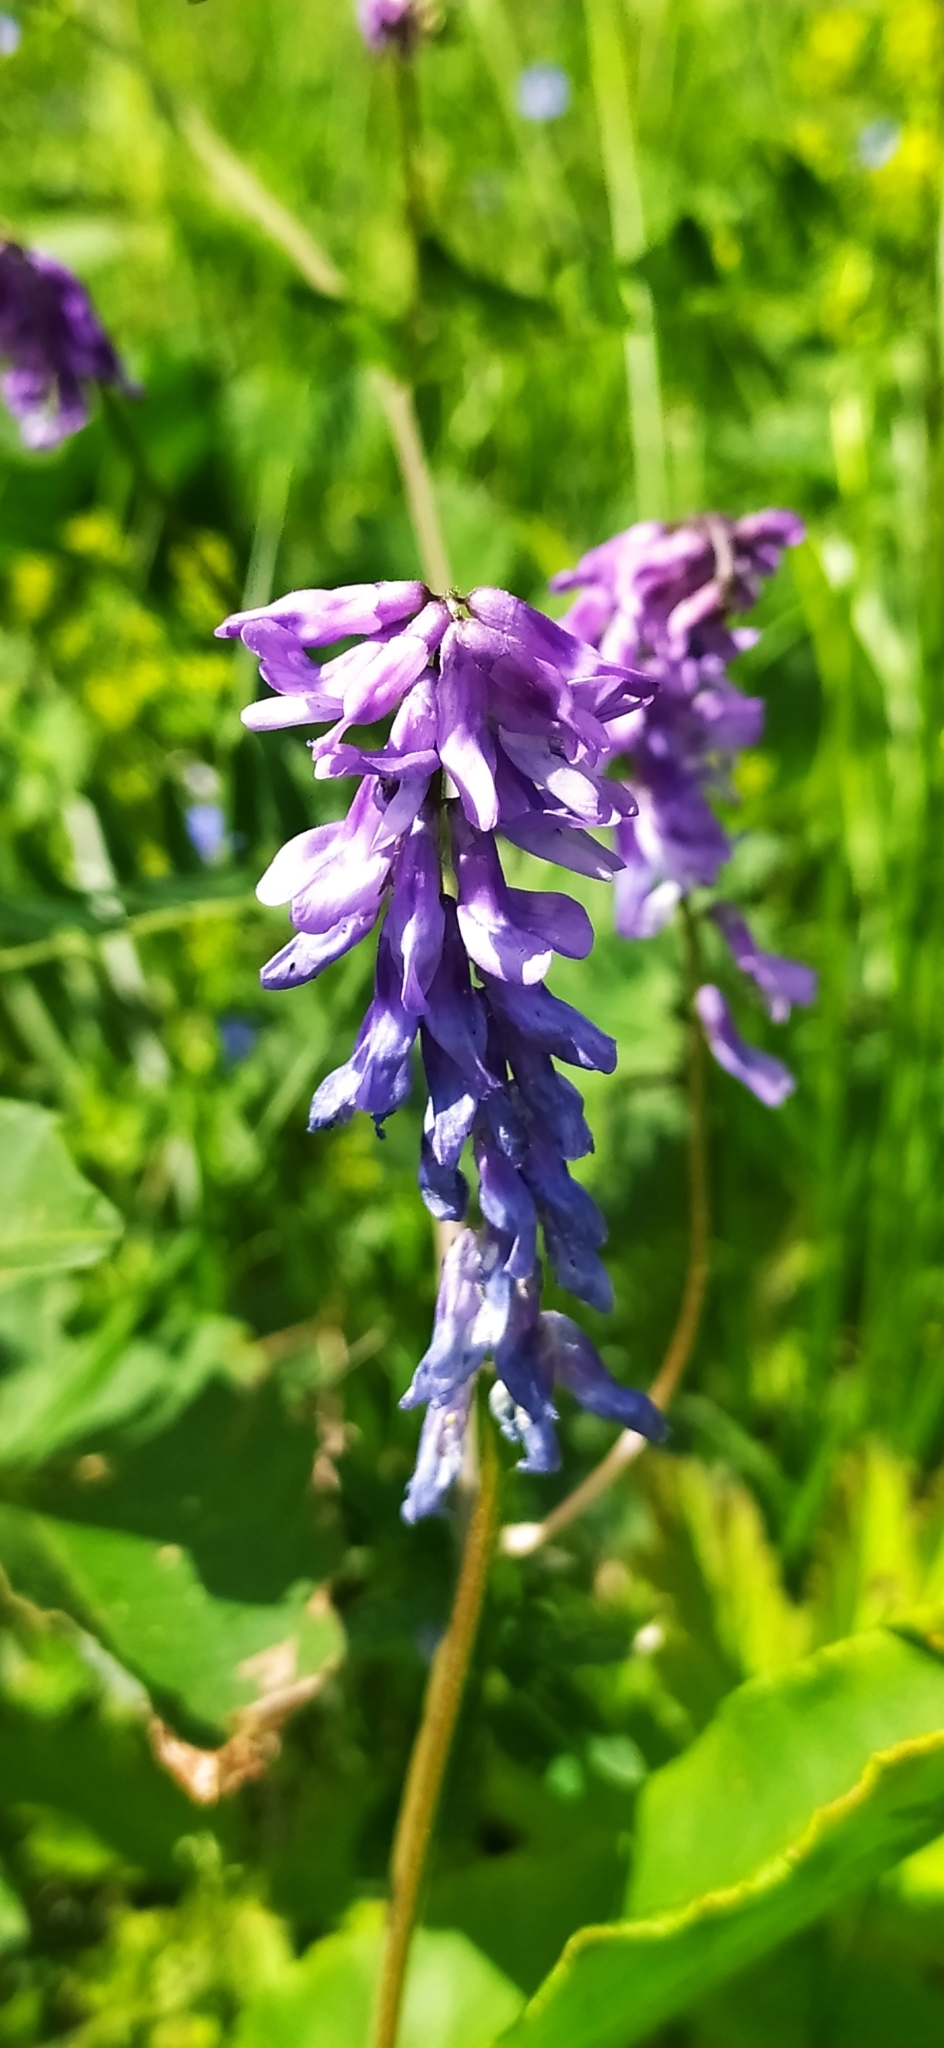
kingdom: Plantae
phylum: Tracheophyta
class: Magnoliopsida
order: Fabales
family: Fabaceae
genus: Vicia
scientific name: Vicia cracca
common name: Bird vetch
